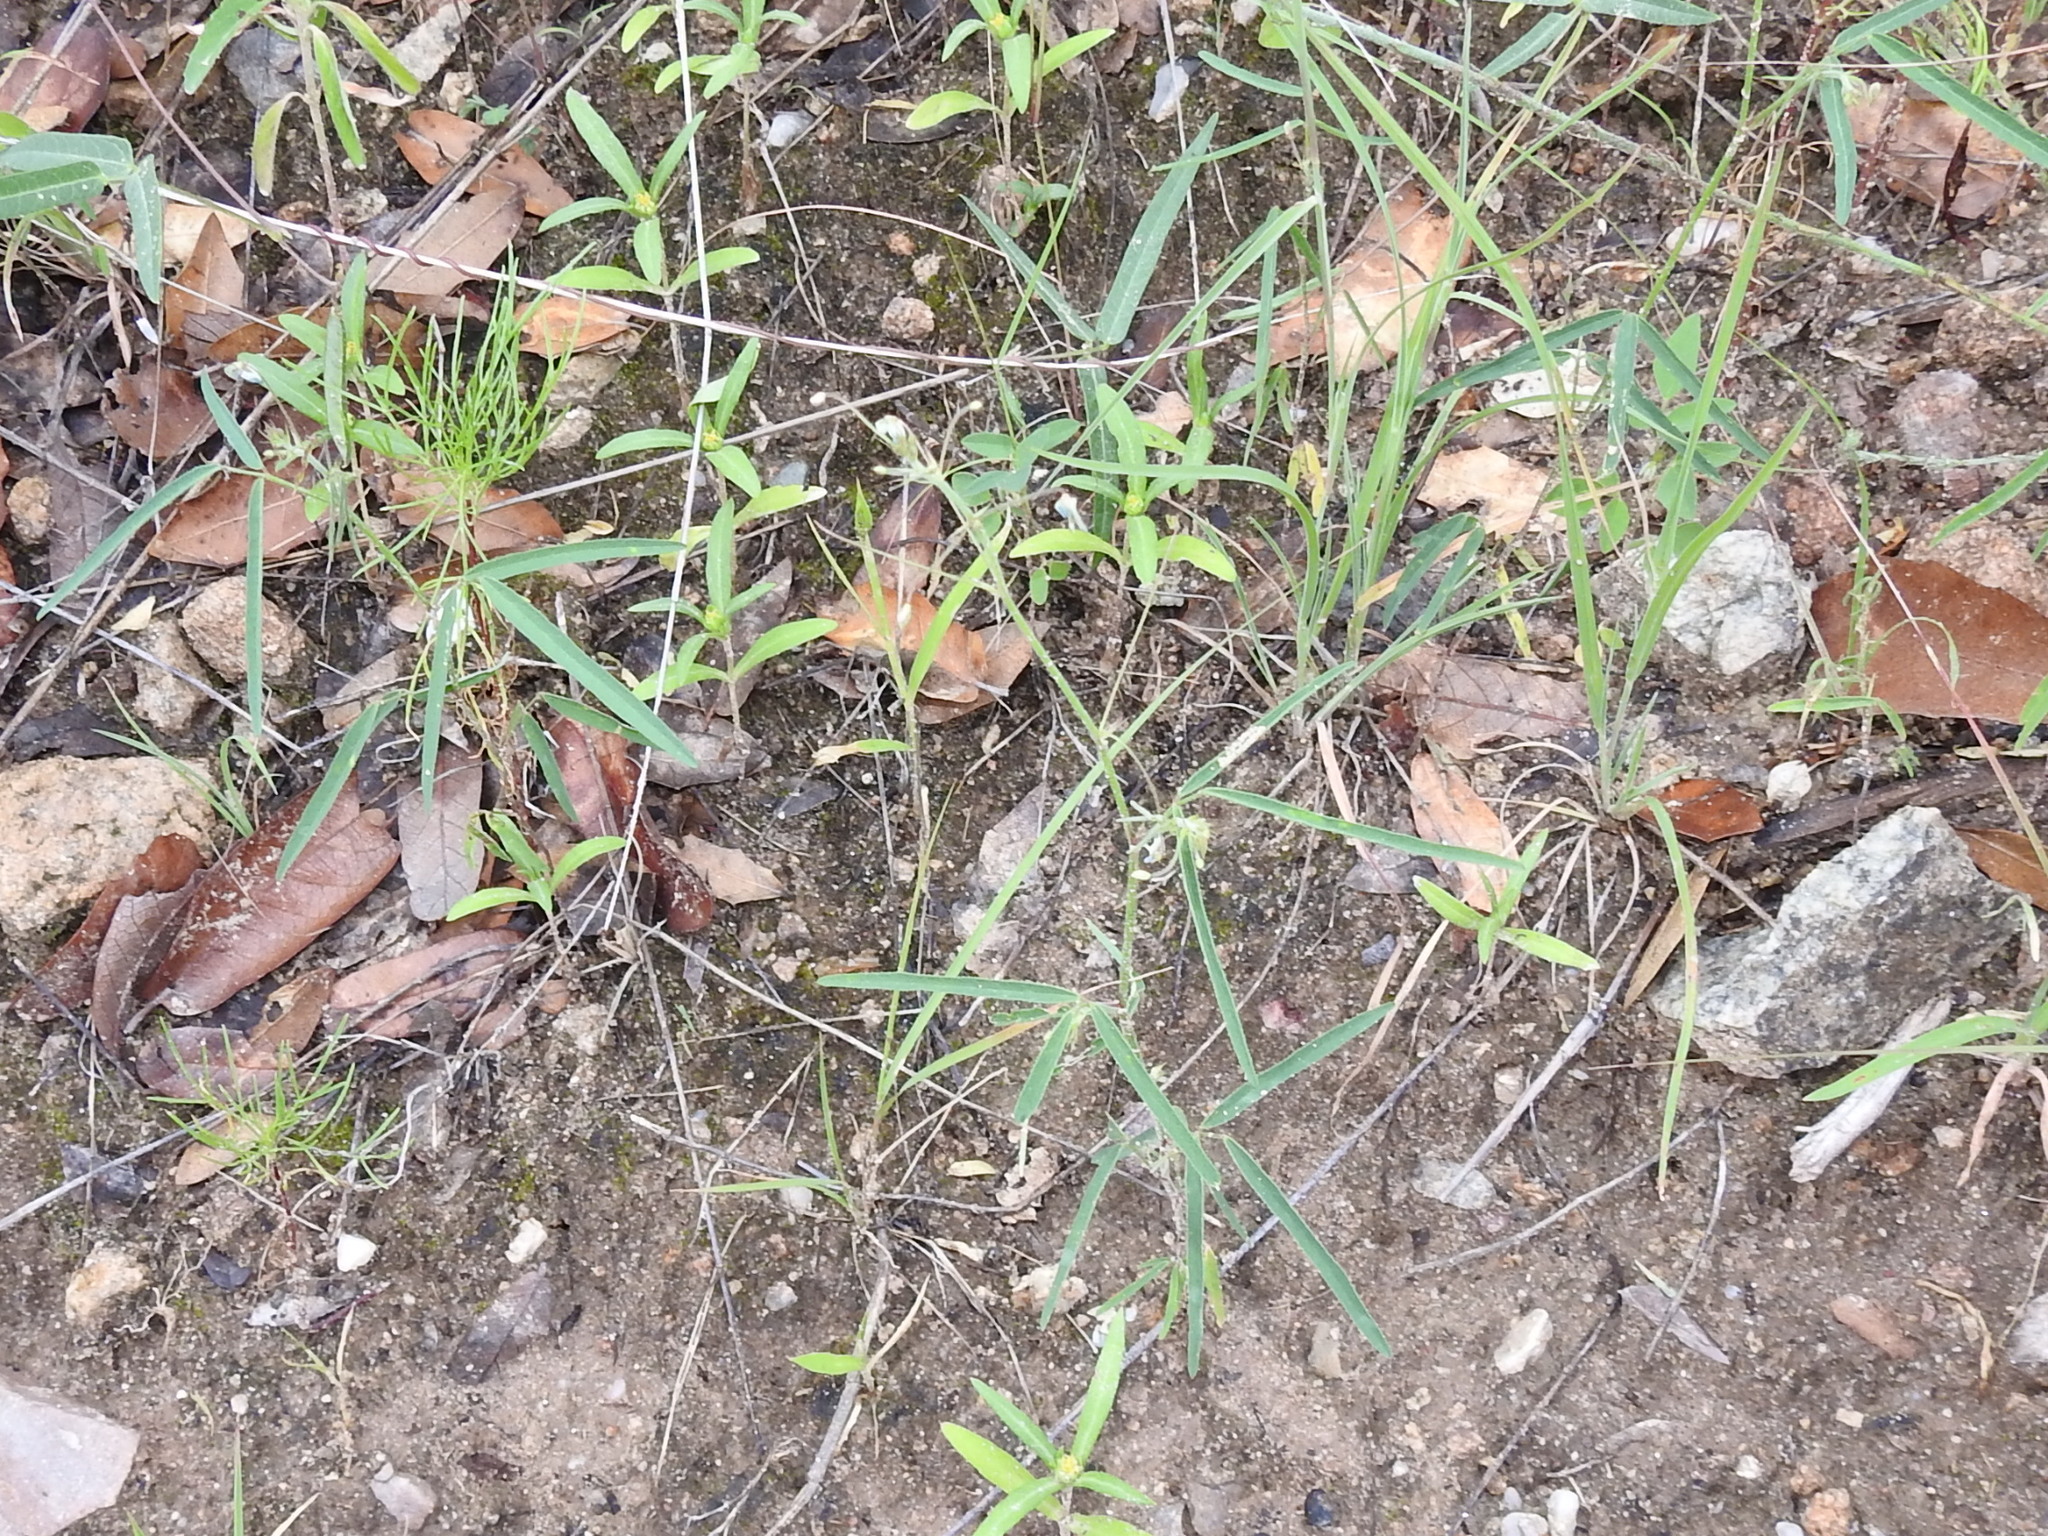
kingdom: Plantae
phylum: Tracheophyta
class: Magnoliopsida
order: Fabales
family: Fabaceae
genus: Desmodium
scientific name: Desmodium rosei
